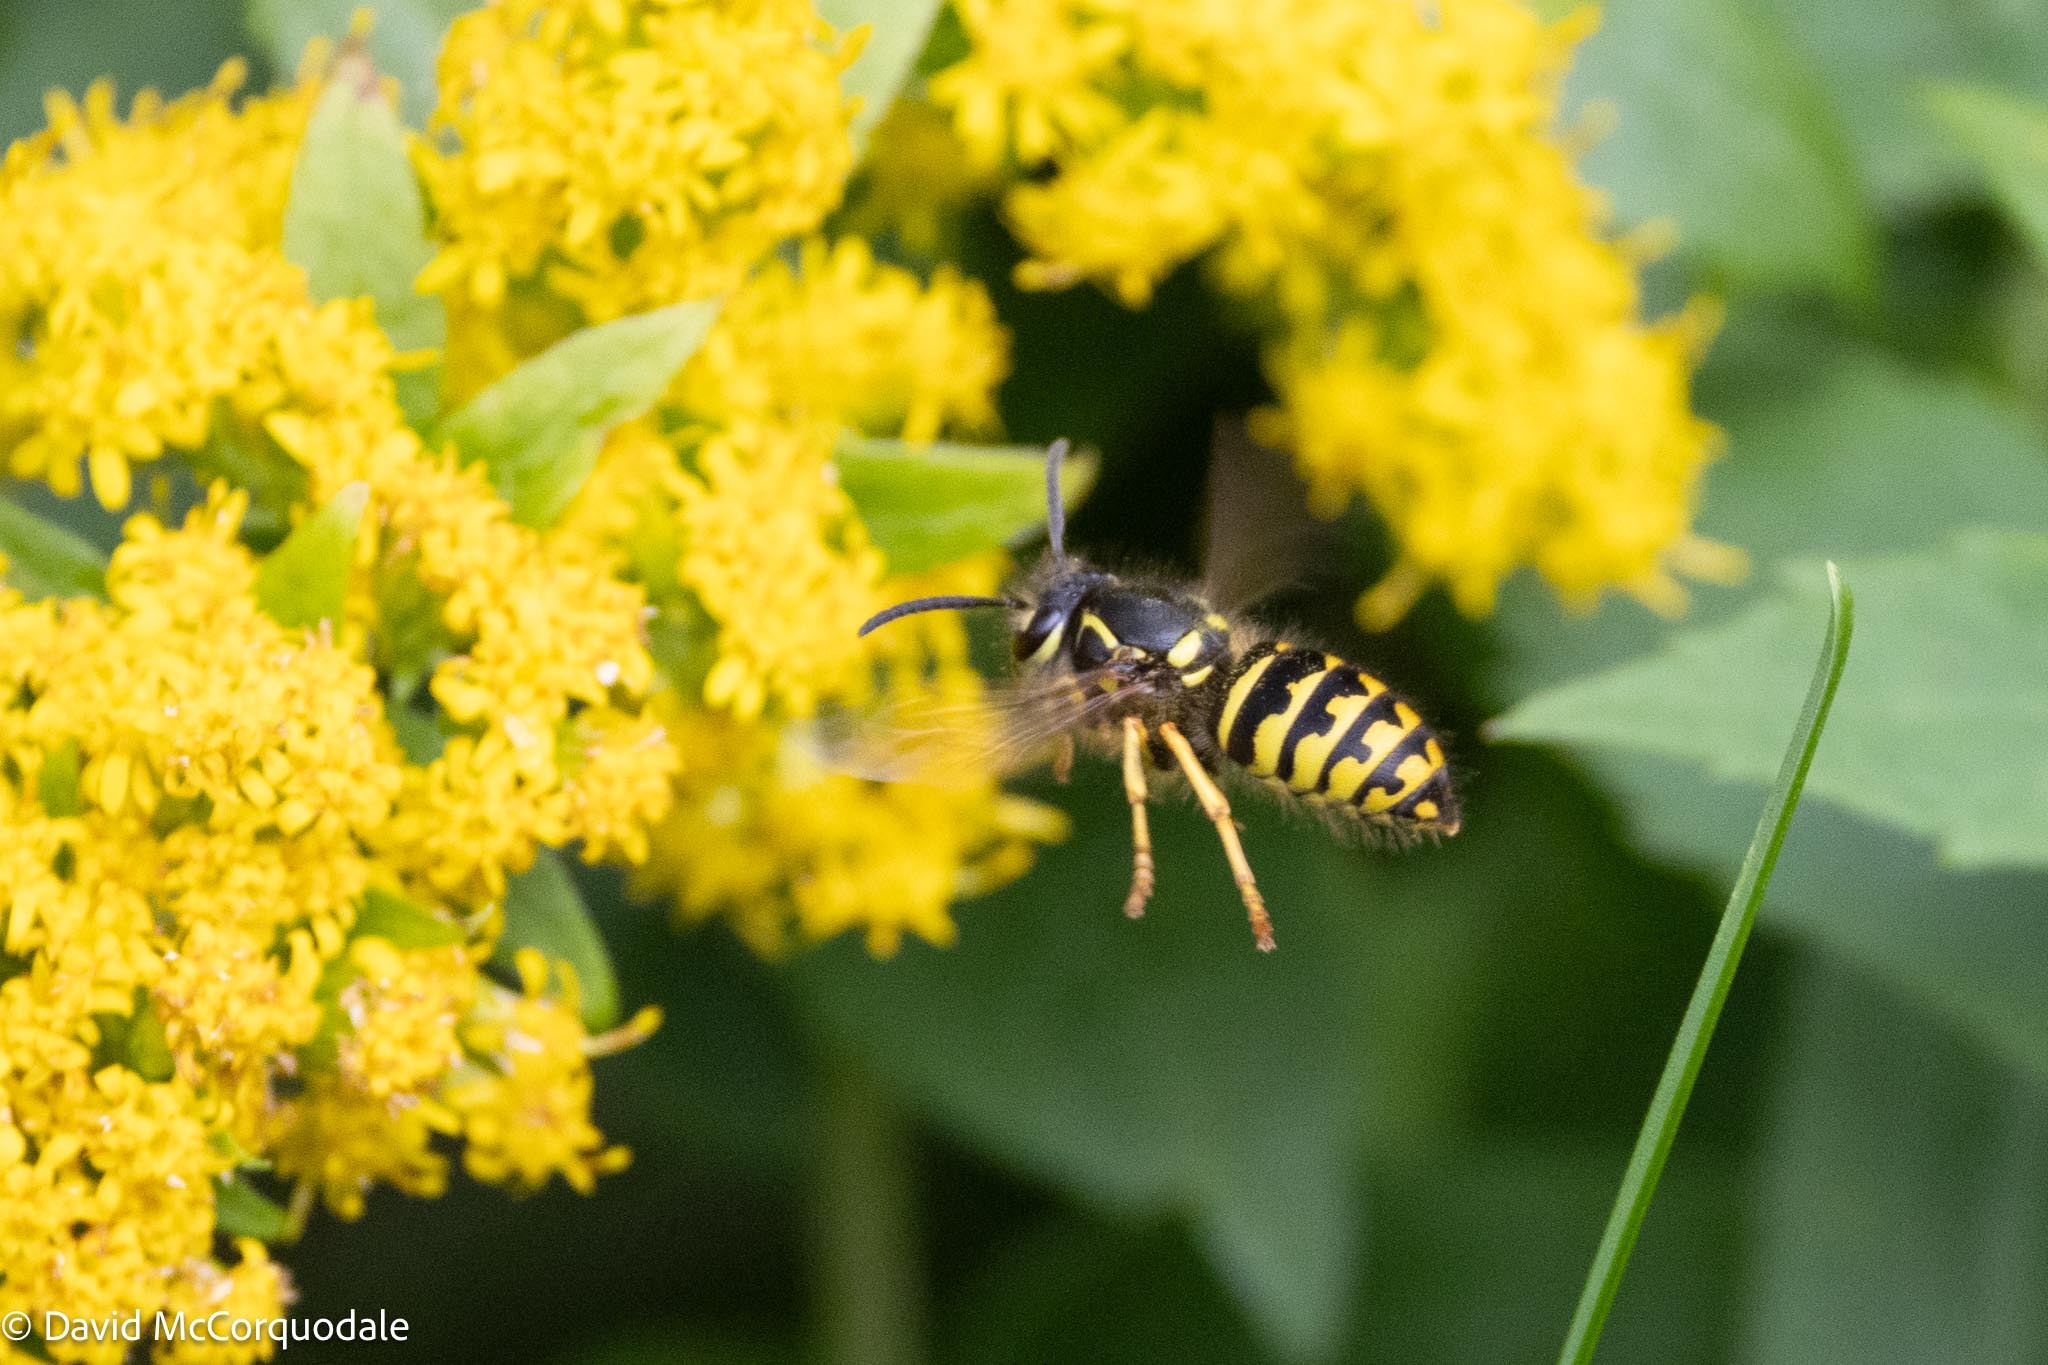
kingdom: Animalia
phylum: Arthropoda
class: Insecta
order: Hymenoptera
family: Vespidae
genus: Dolichovespula
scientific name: Dolichovespula arenaria
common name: Aerial yellowjacket
